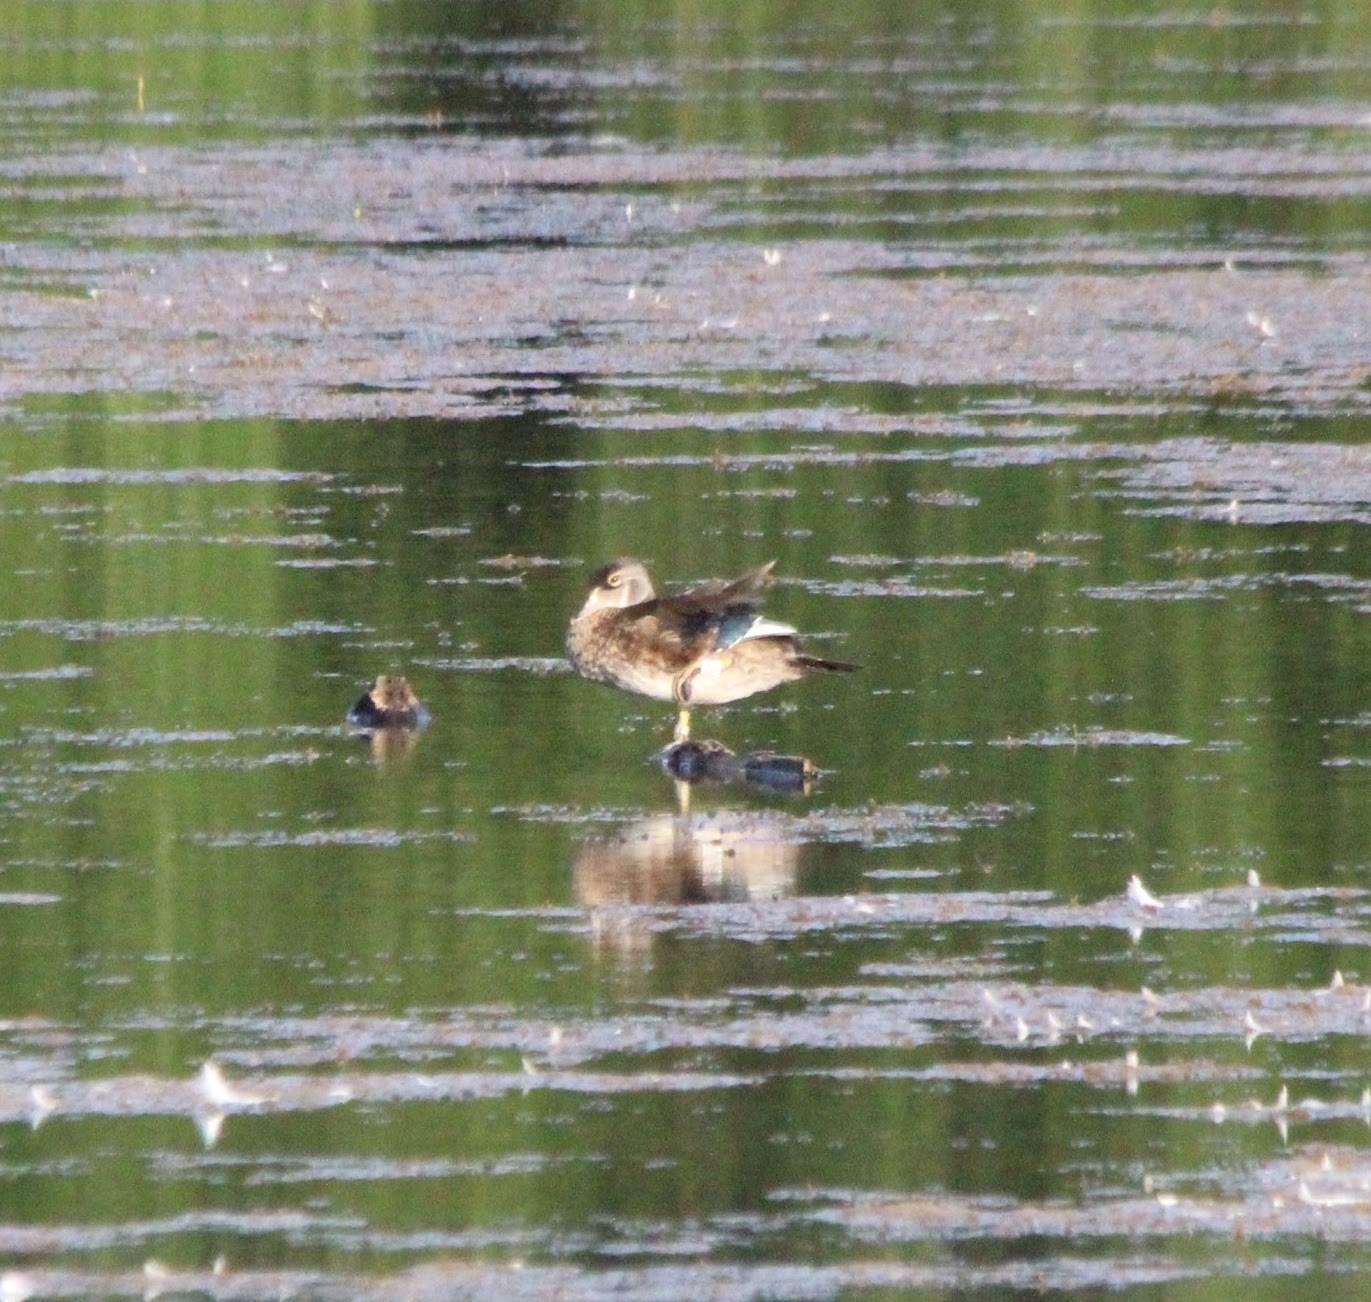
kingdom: Animalia
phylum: Chordata
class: Aves
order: Anseriformes
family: Anatidae
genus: Aix
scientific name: Aix sponsa
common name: Wood duck
